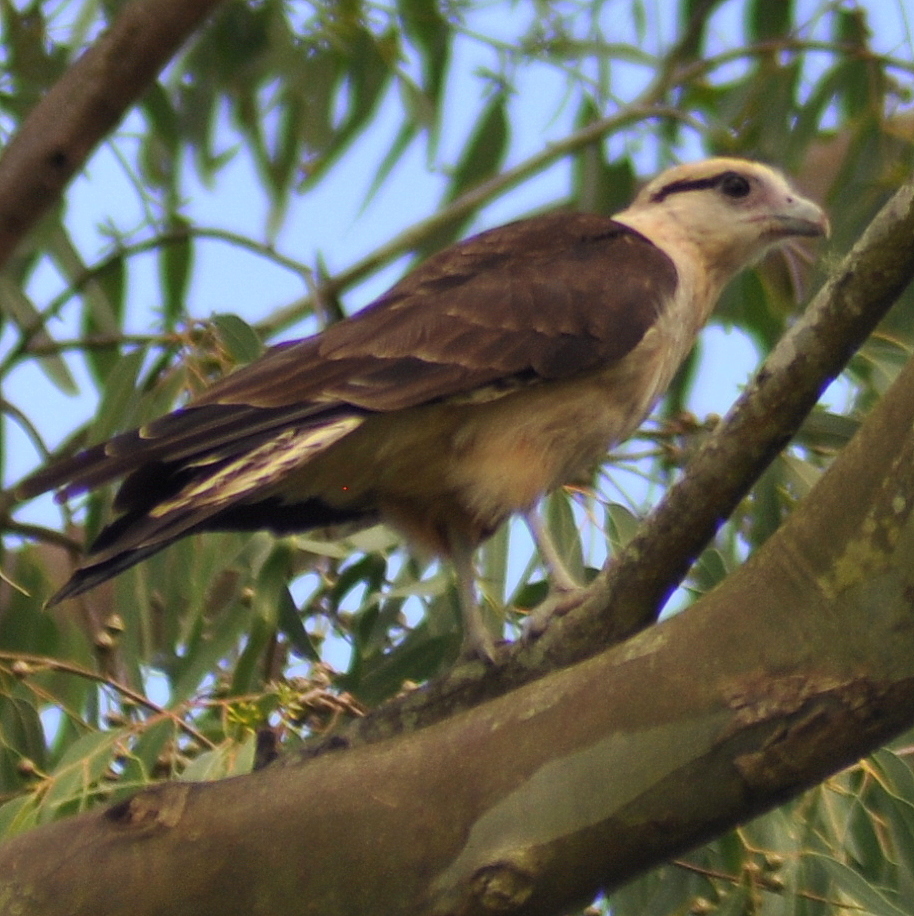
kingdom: Animalia
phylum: Chordata
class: Aves
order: Falconiformes
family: Falconidae
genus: Daptrius
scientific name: Daptrius
